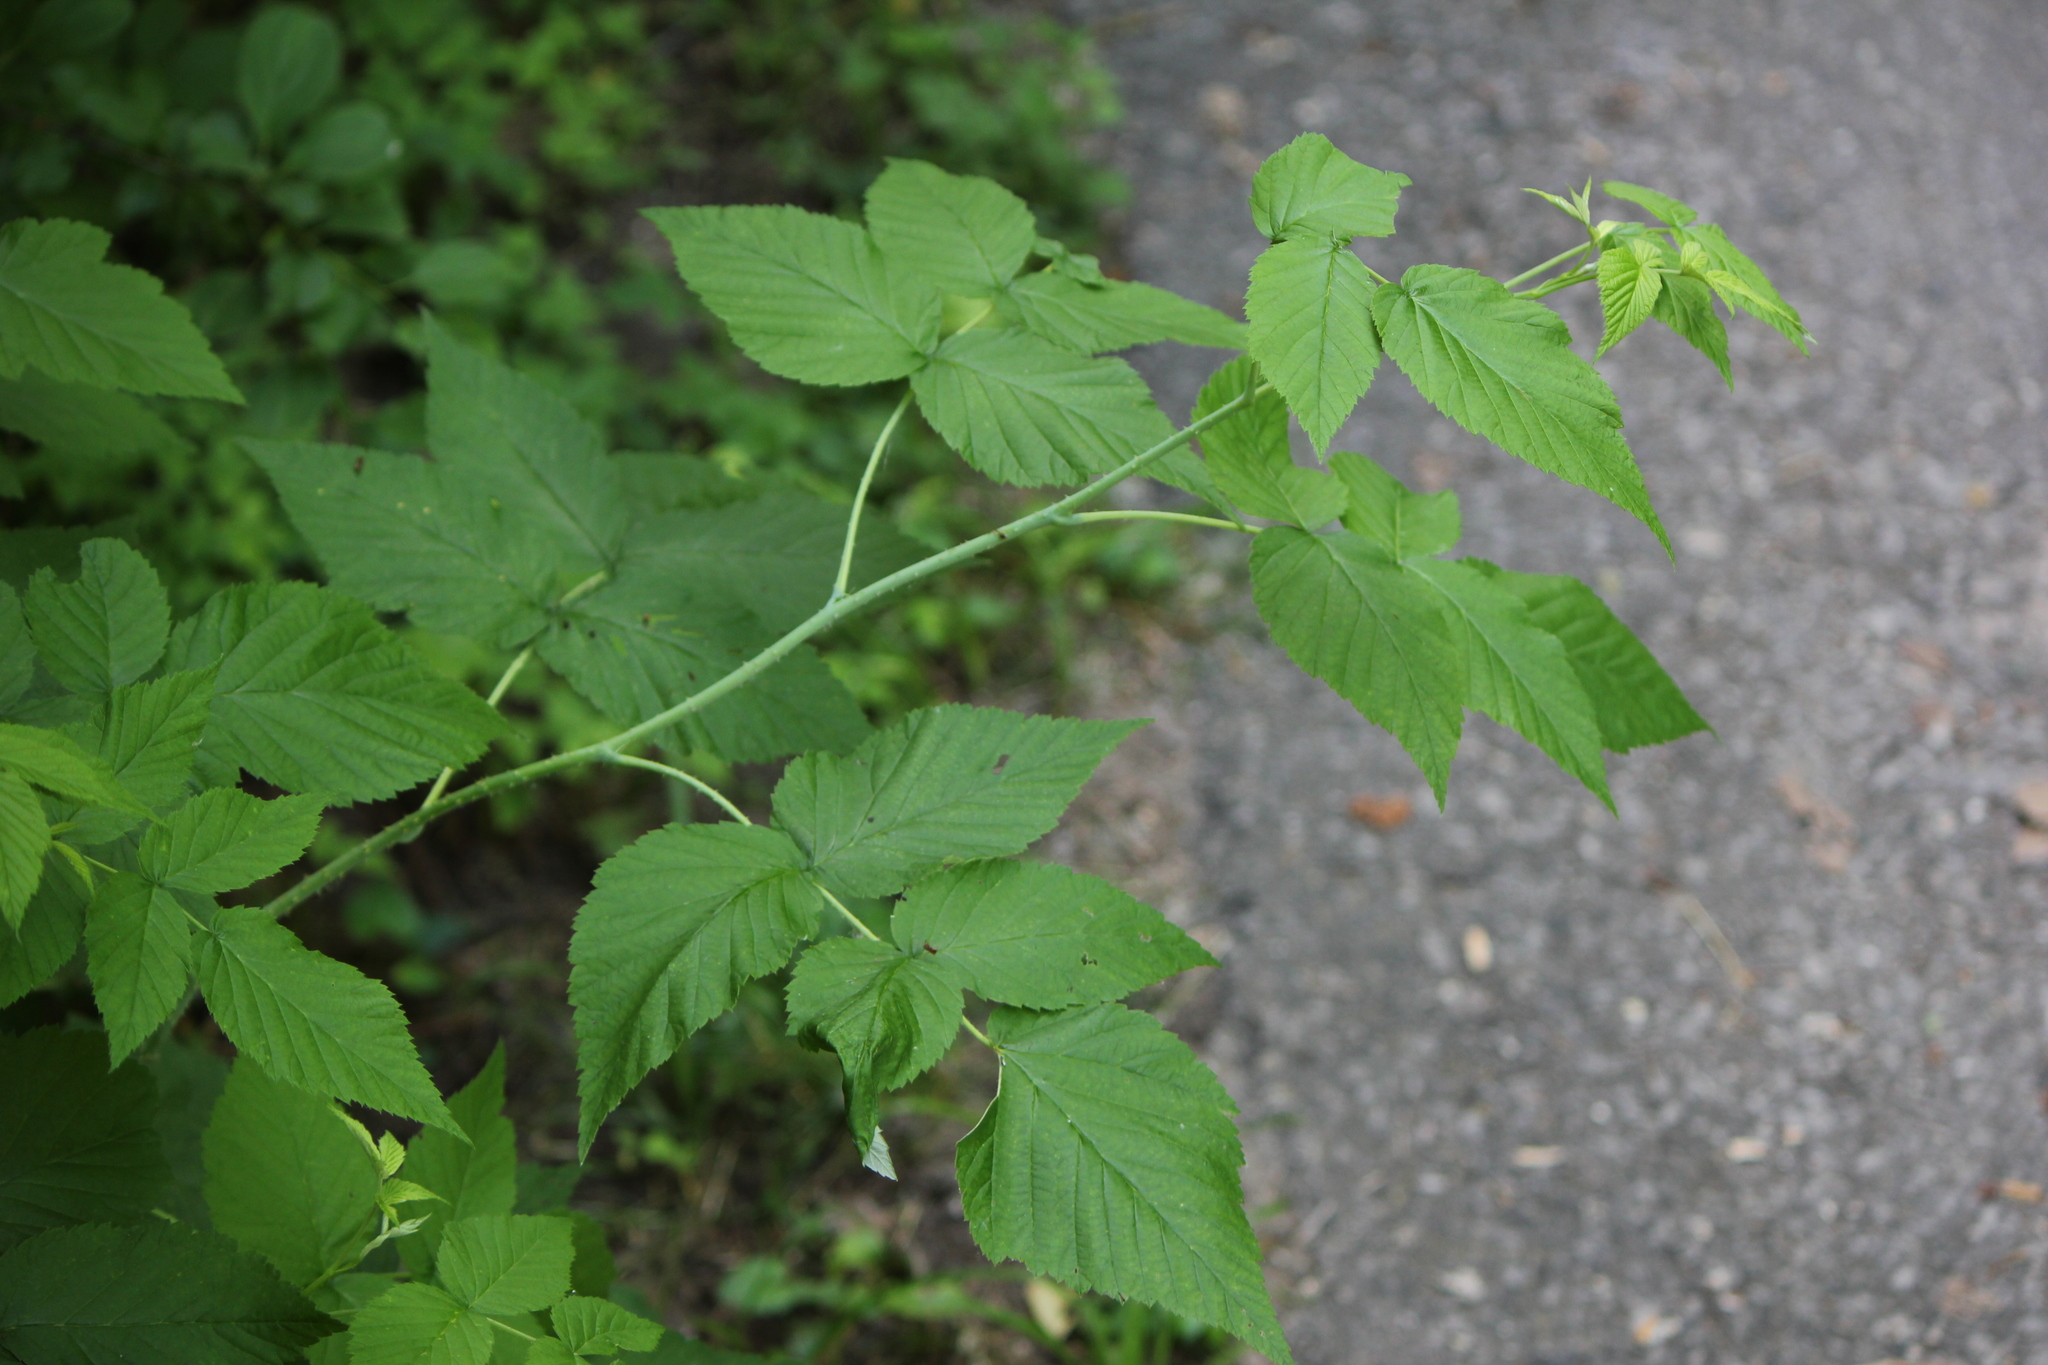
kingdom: Plantae
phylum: Tracheophyta
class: Magnoliopsida
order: Rosales
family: Rosaceae
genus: Rubus
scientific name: Rubus occidentalis
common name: Black raspberry
